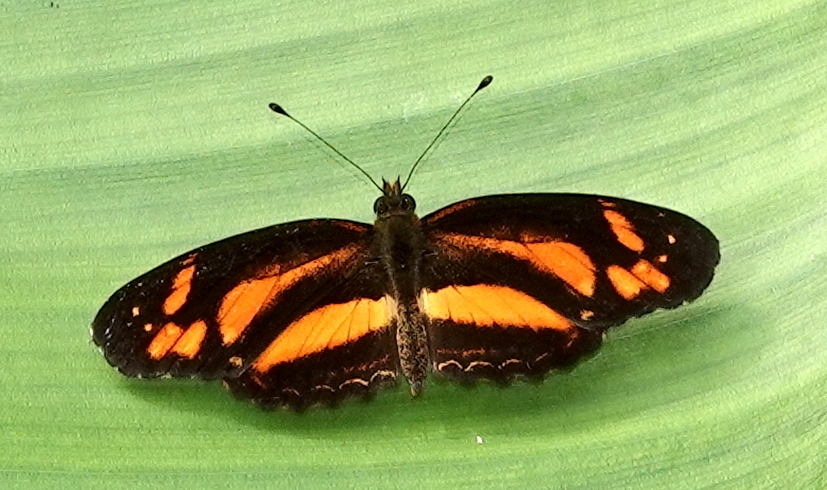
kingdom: Animalia
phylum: Arthropoda
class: Insecta
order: Lepidoptera
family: Nymphalidae
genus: Castilia
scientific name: Castilia eranites
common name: Smudged crescent
